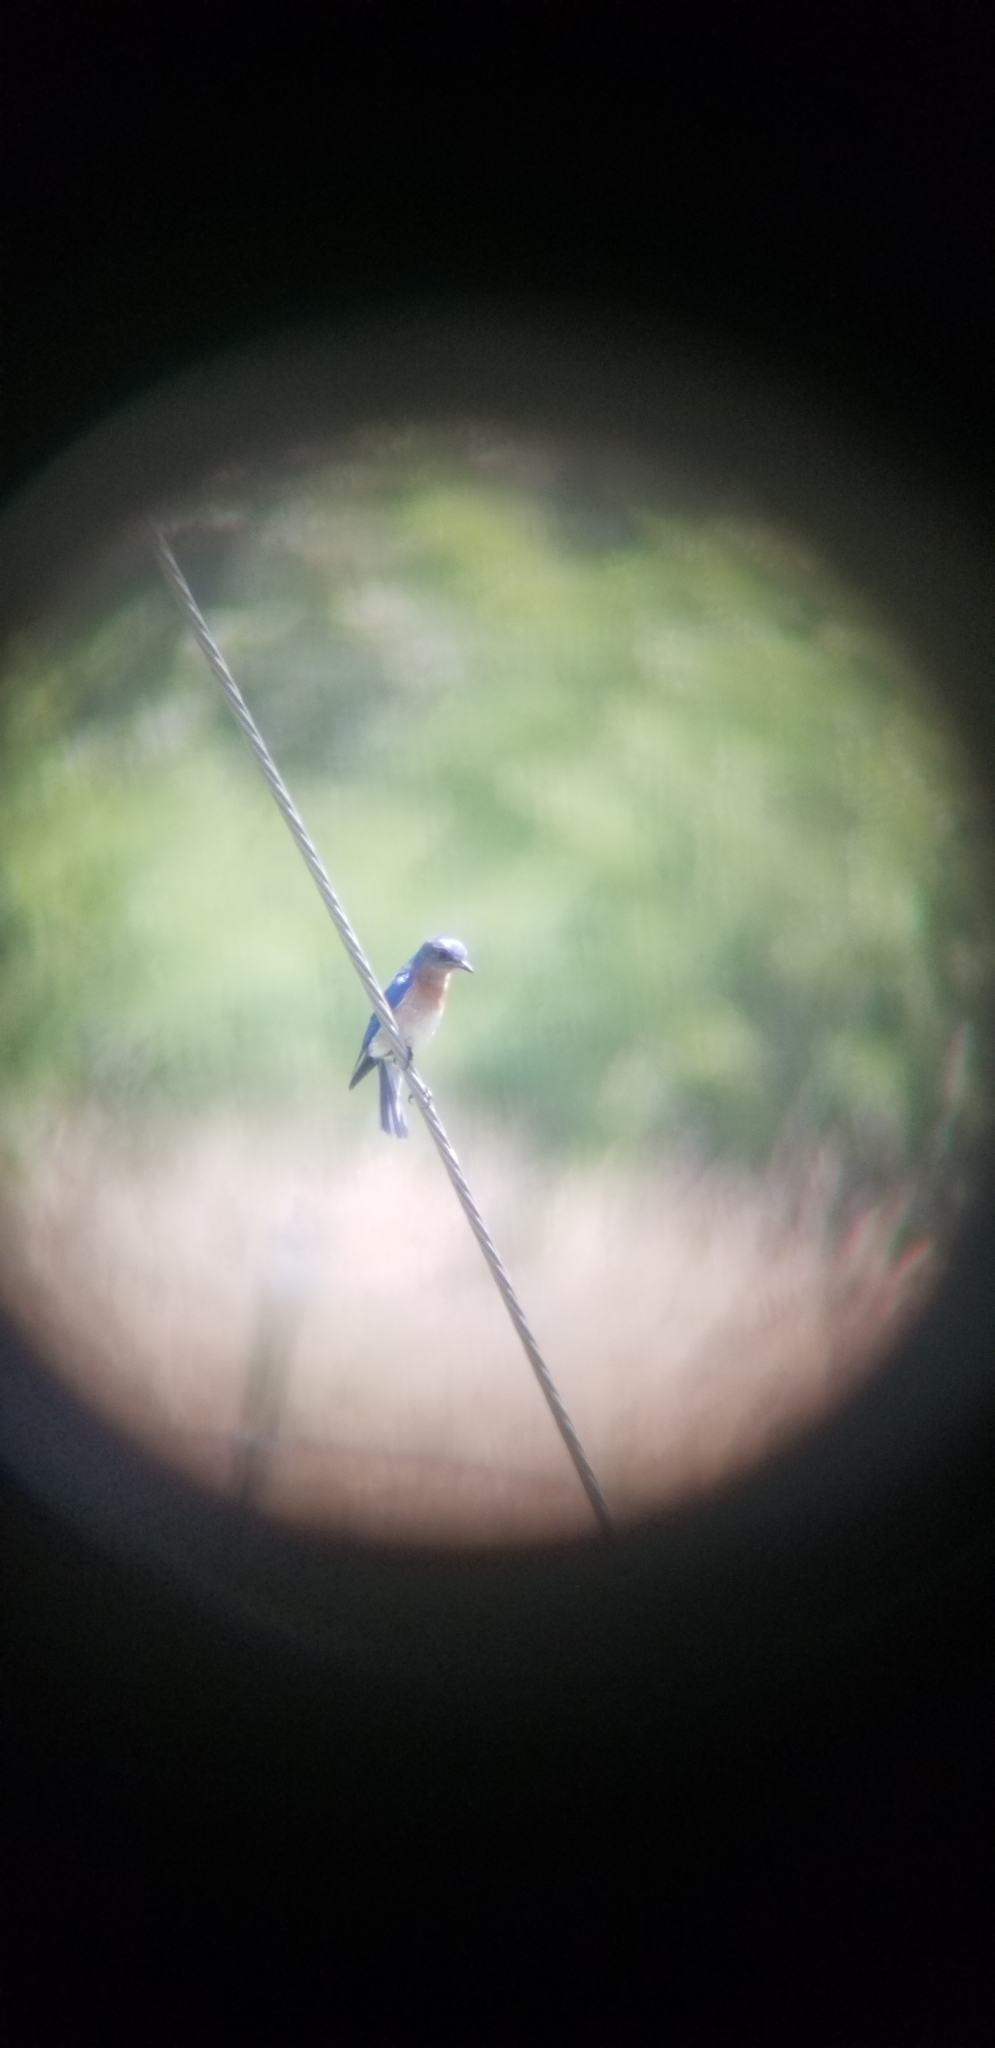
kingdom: Animalia
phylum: Chordata
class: Aves
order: Passeriformes
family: Turdidae
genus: Sialia
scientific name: Sialia sialis
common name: Eastern bluebird
